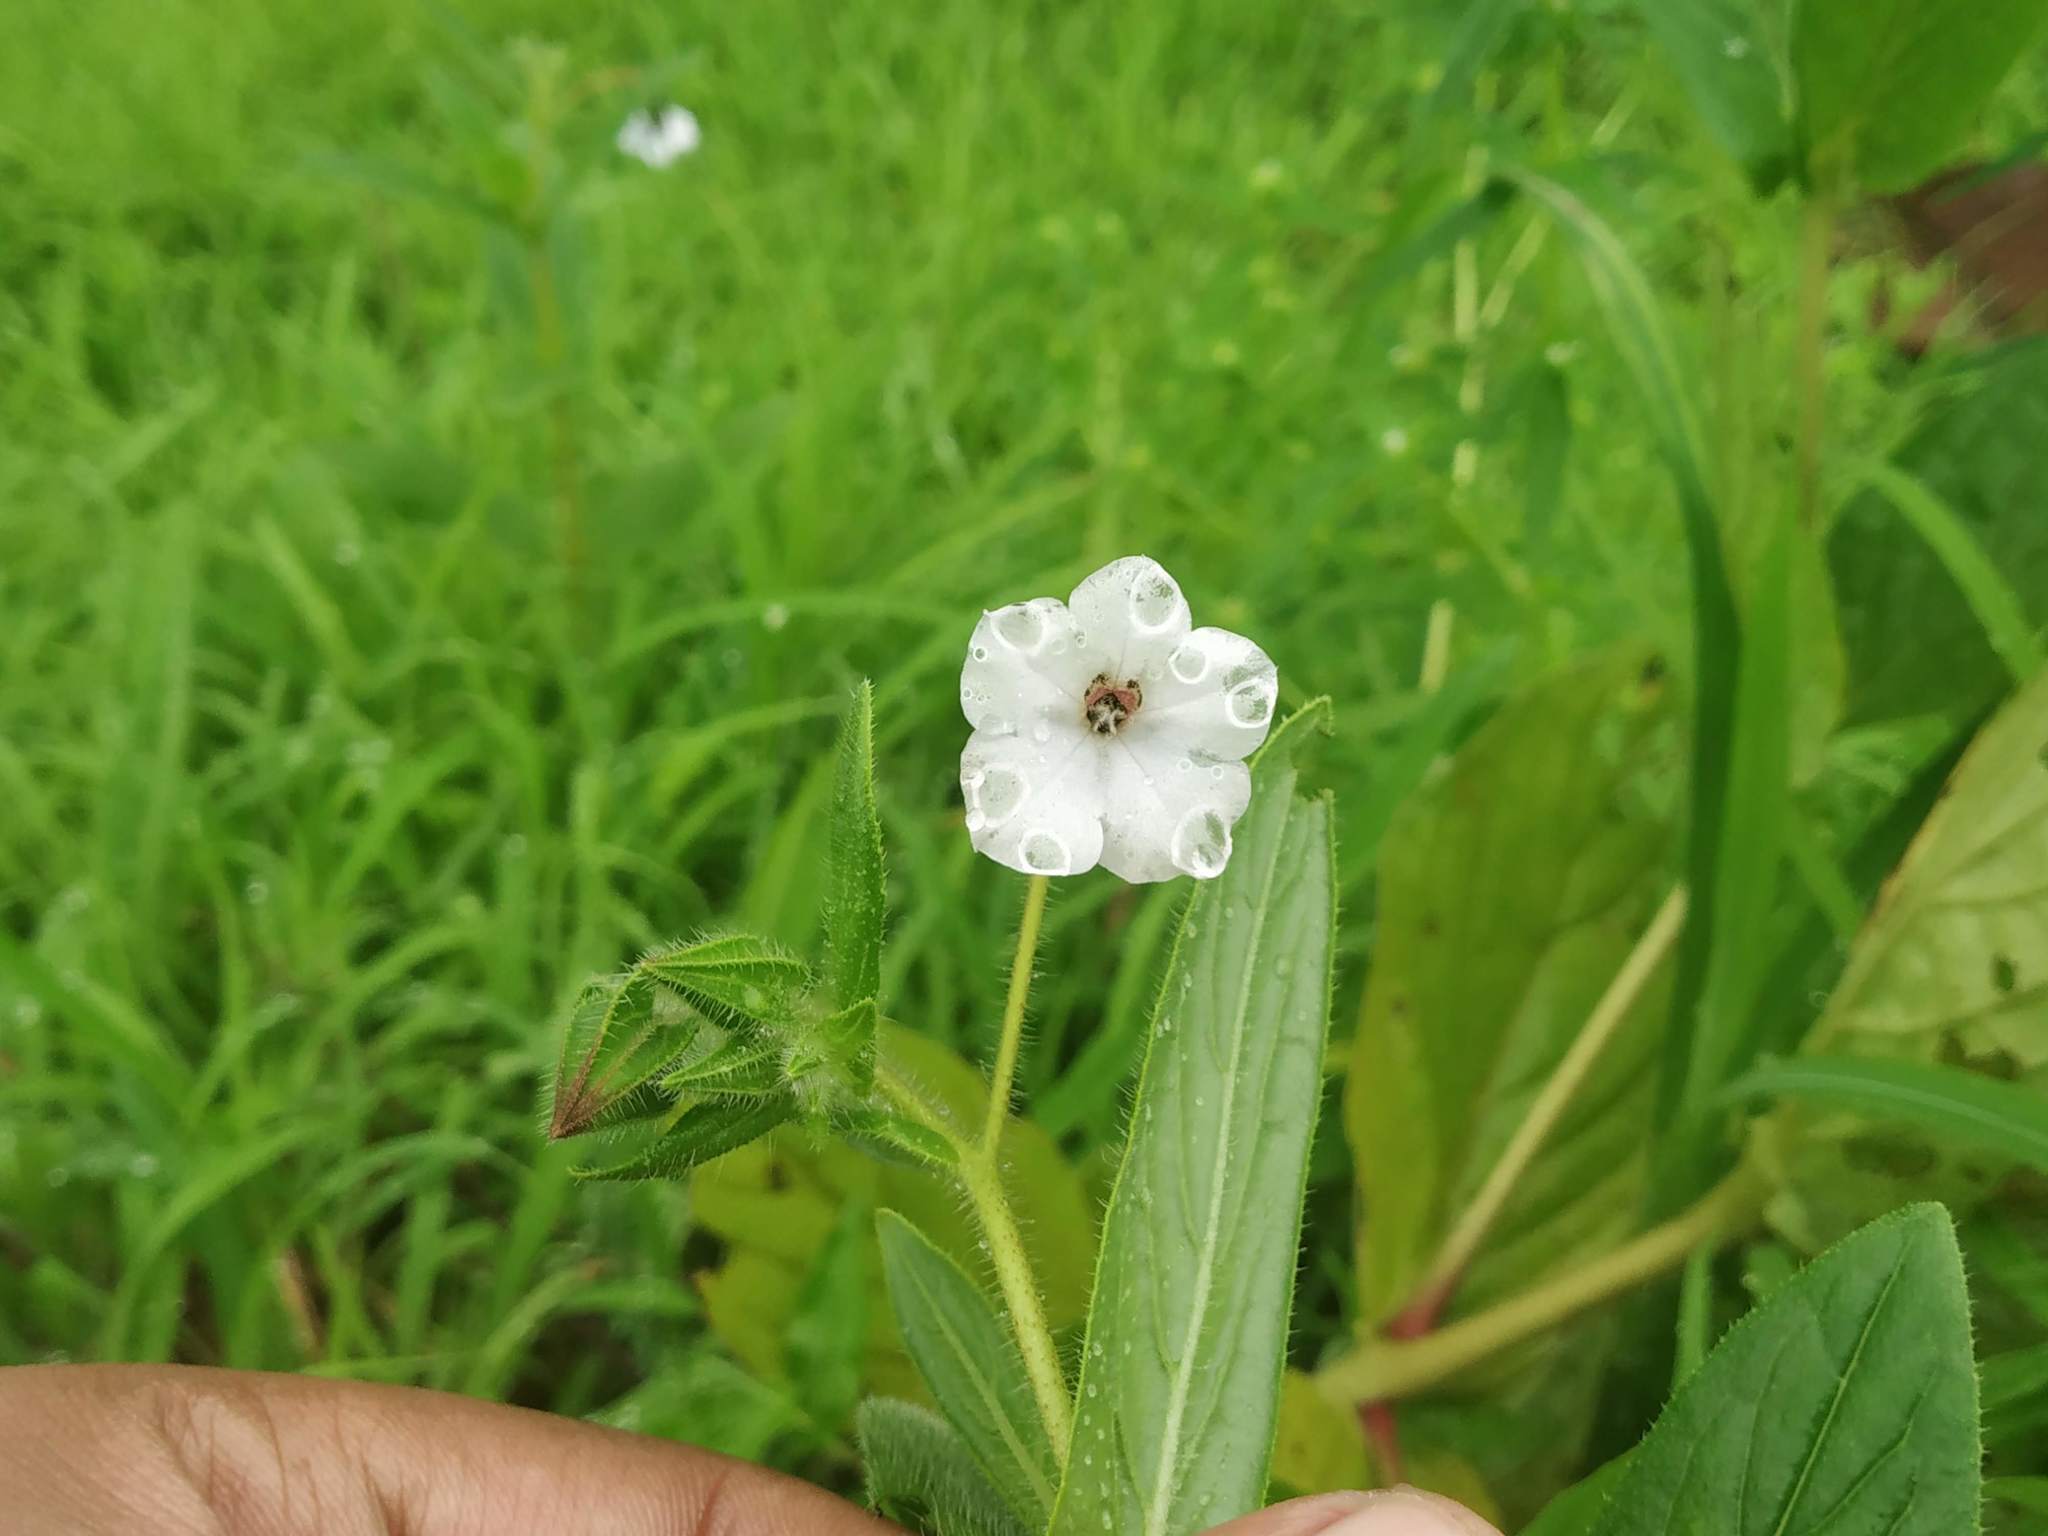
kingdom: Plantae
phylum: Tracheophyta
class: Magnoliopsida
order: Boraginales
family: Boraginaceae
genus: Trichodesma
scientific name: Trichodesma inaequale
